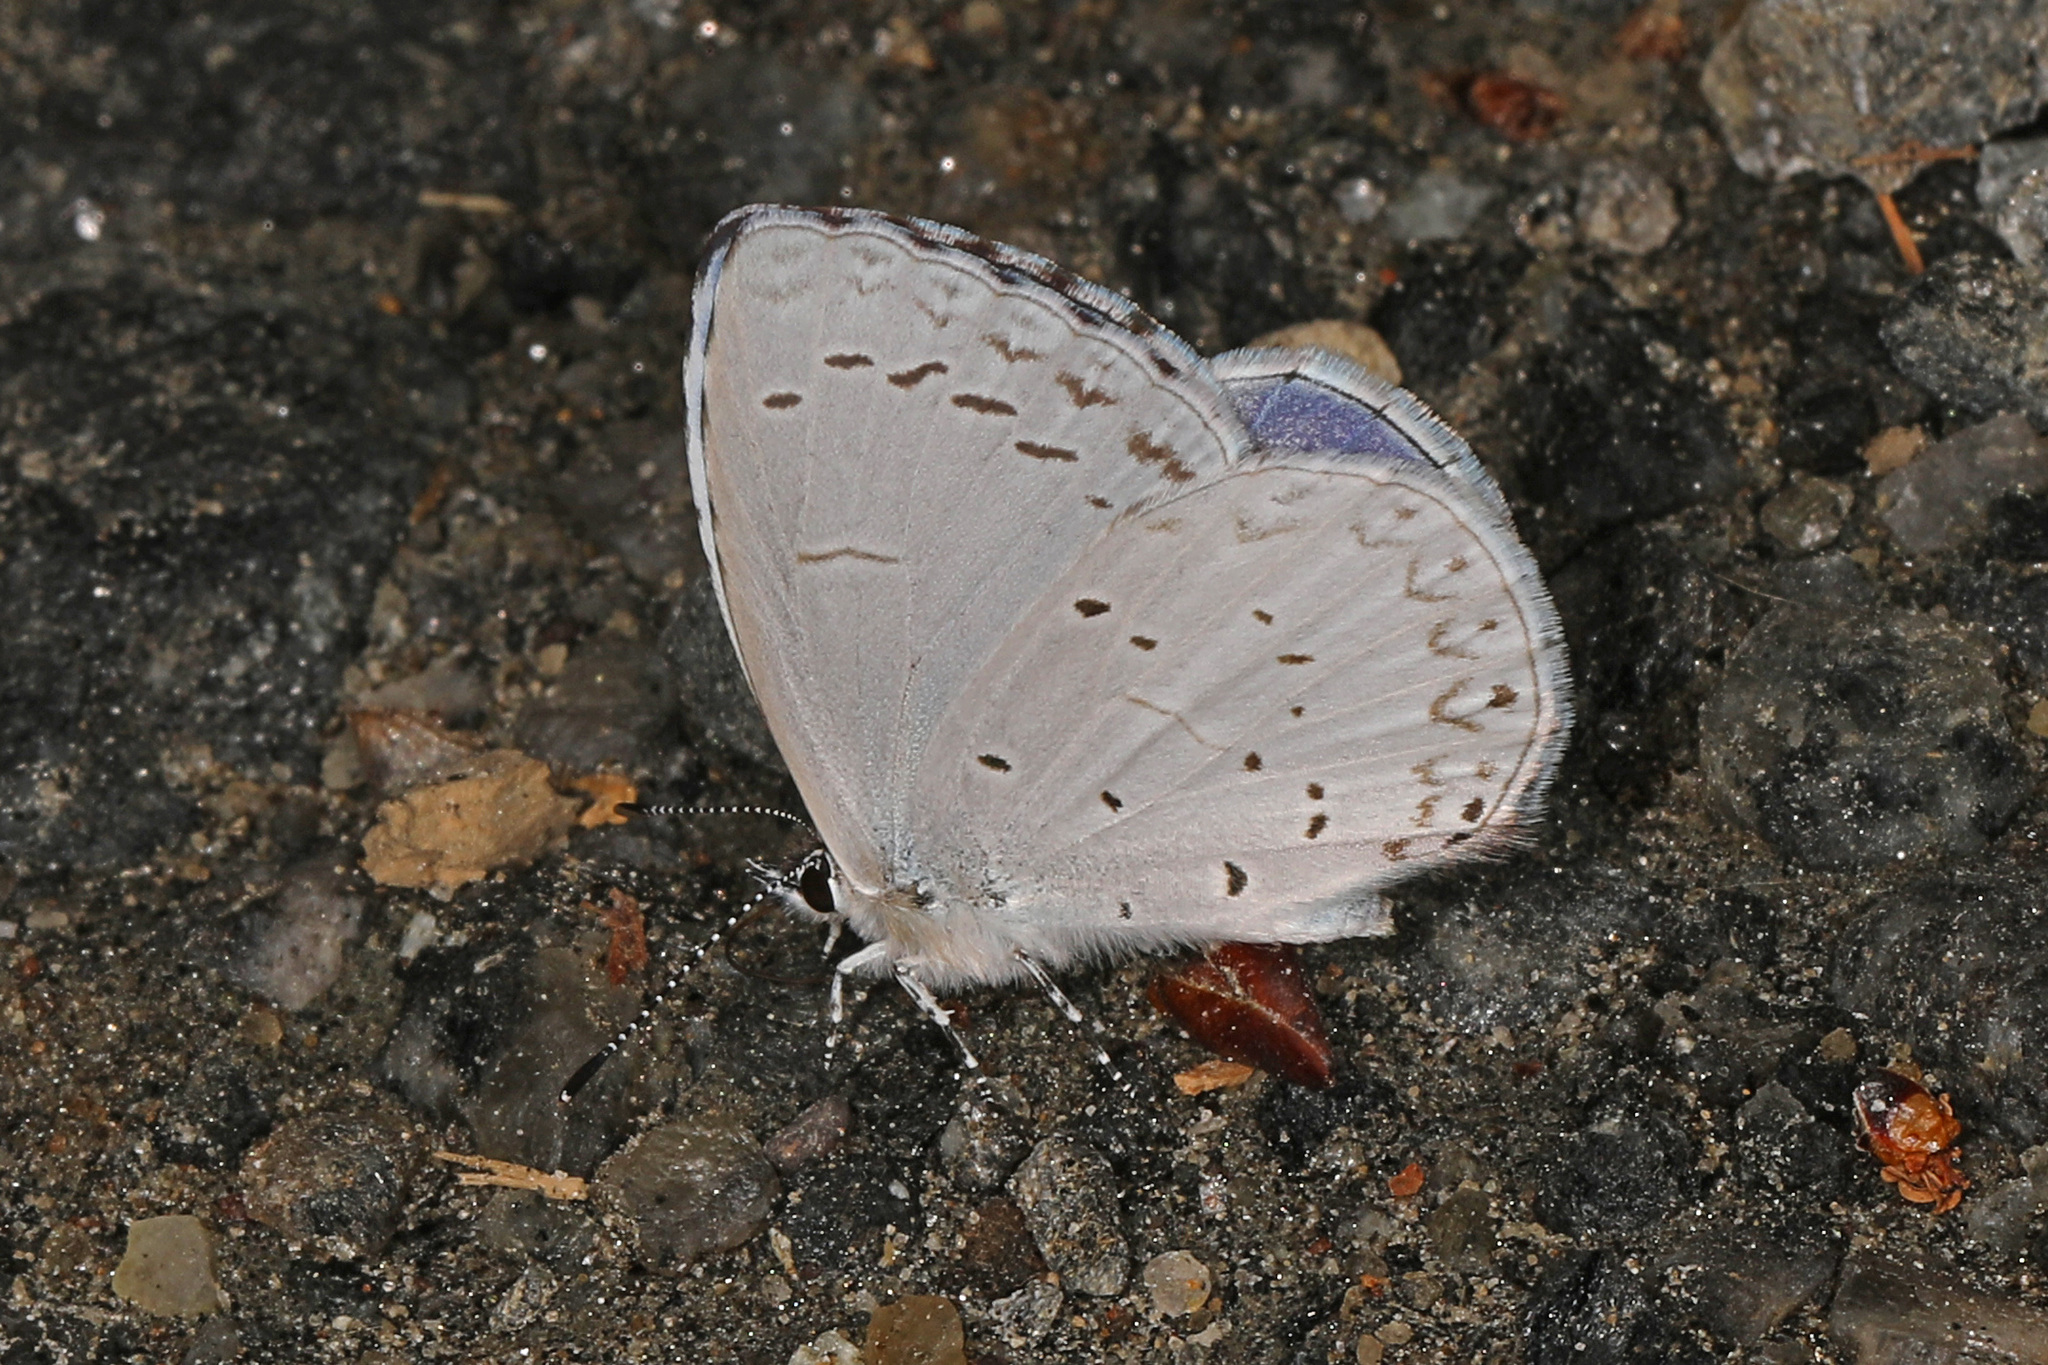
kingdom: Animalia
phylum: Arthropoda
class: Insecta
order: Lepidoptera
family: Lycaenidae
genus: Cyaniris
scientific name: Cyaniris neglecta
